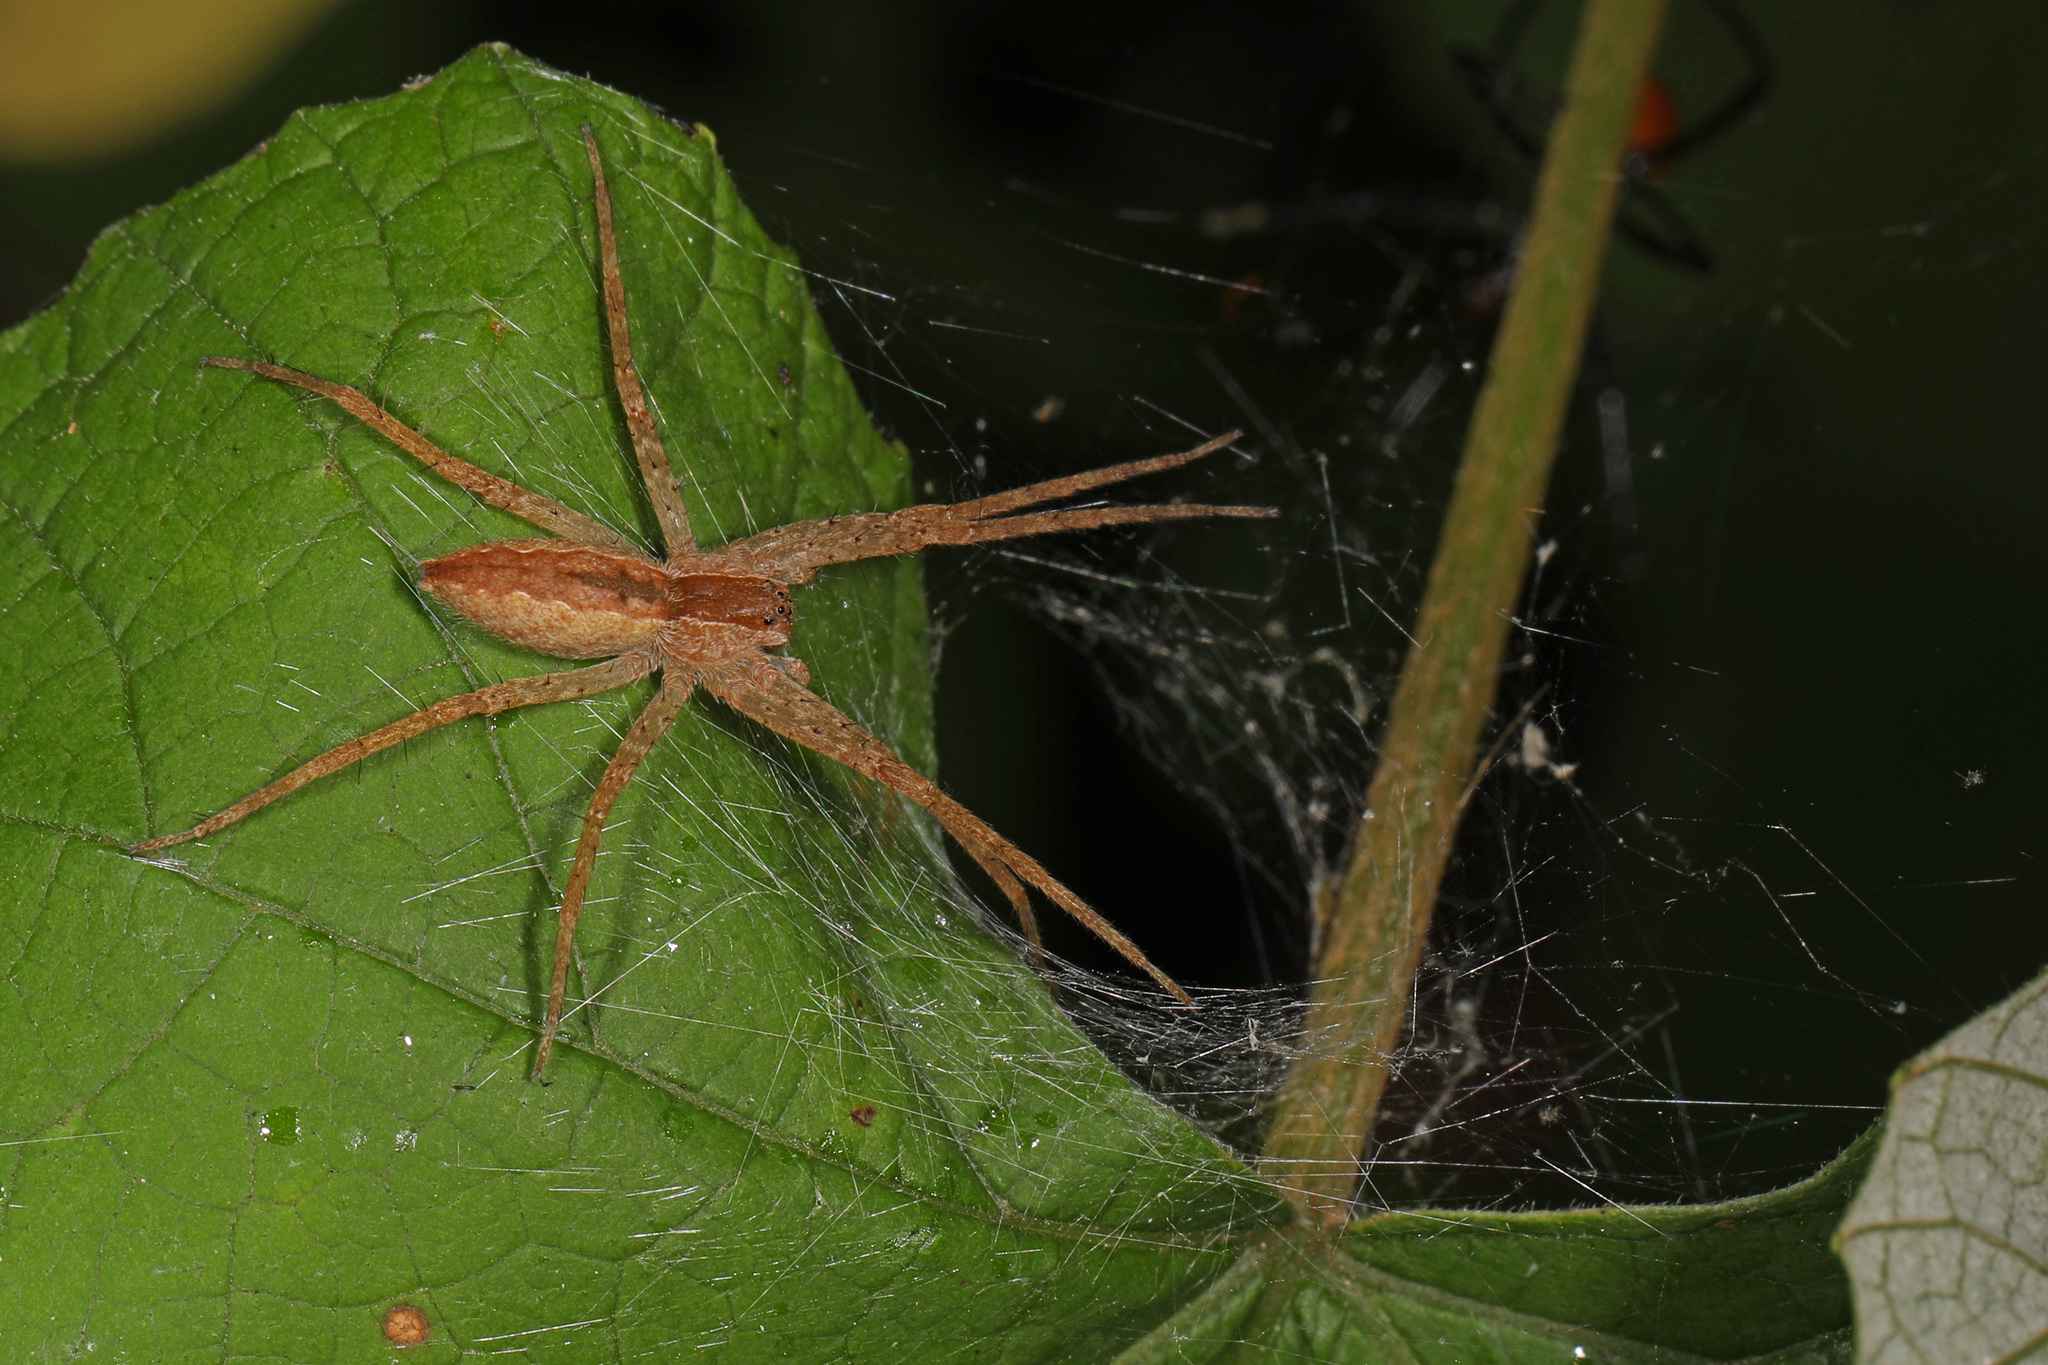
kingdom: Animalia
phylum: Arthropoda
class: Arachnida
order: Araneae
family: Pisauridae
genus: Pisaurina
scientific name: Pisaurina mira
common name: American nursery web spider
